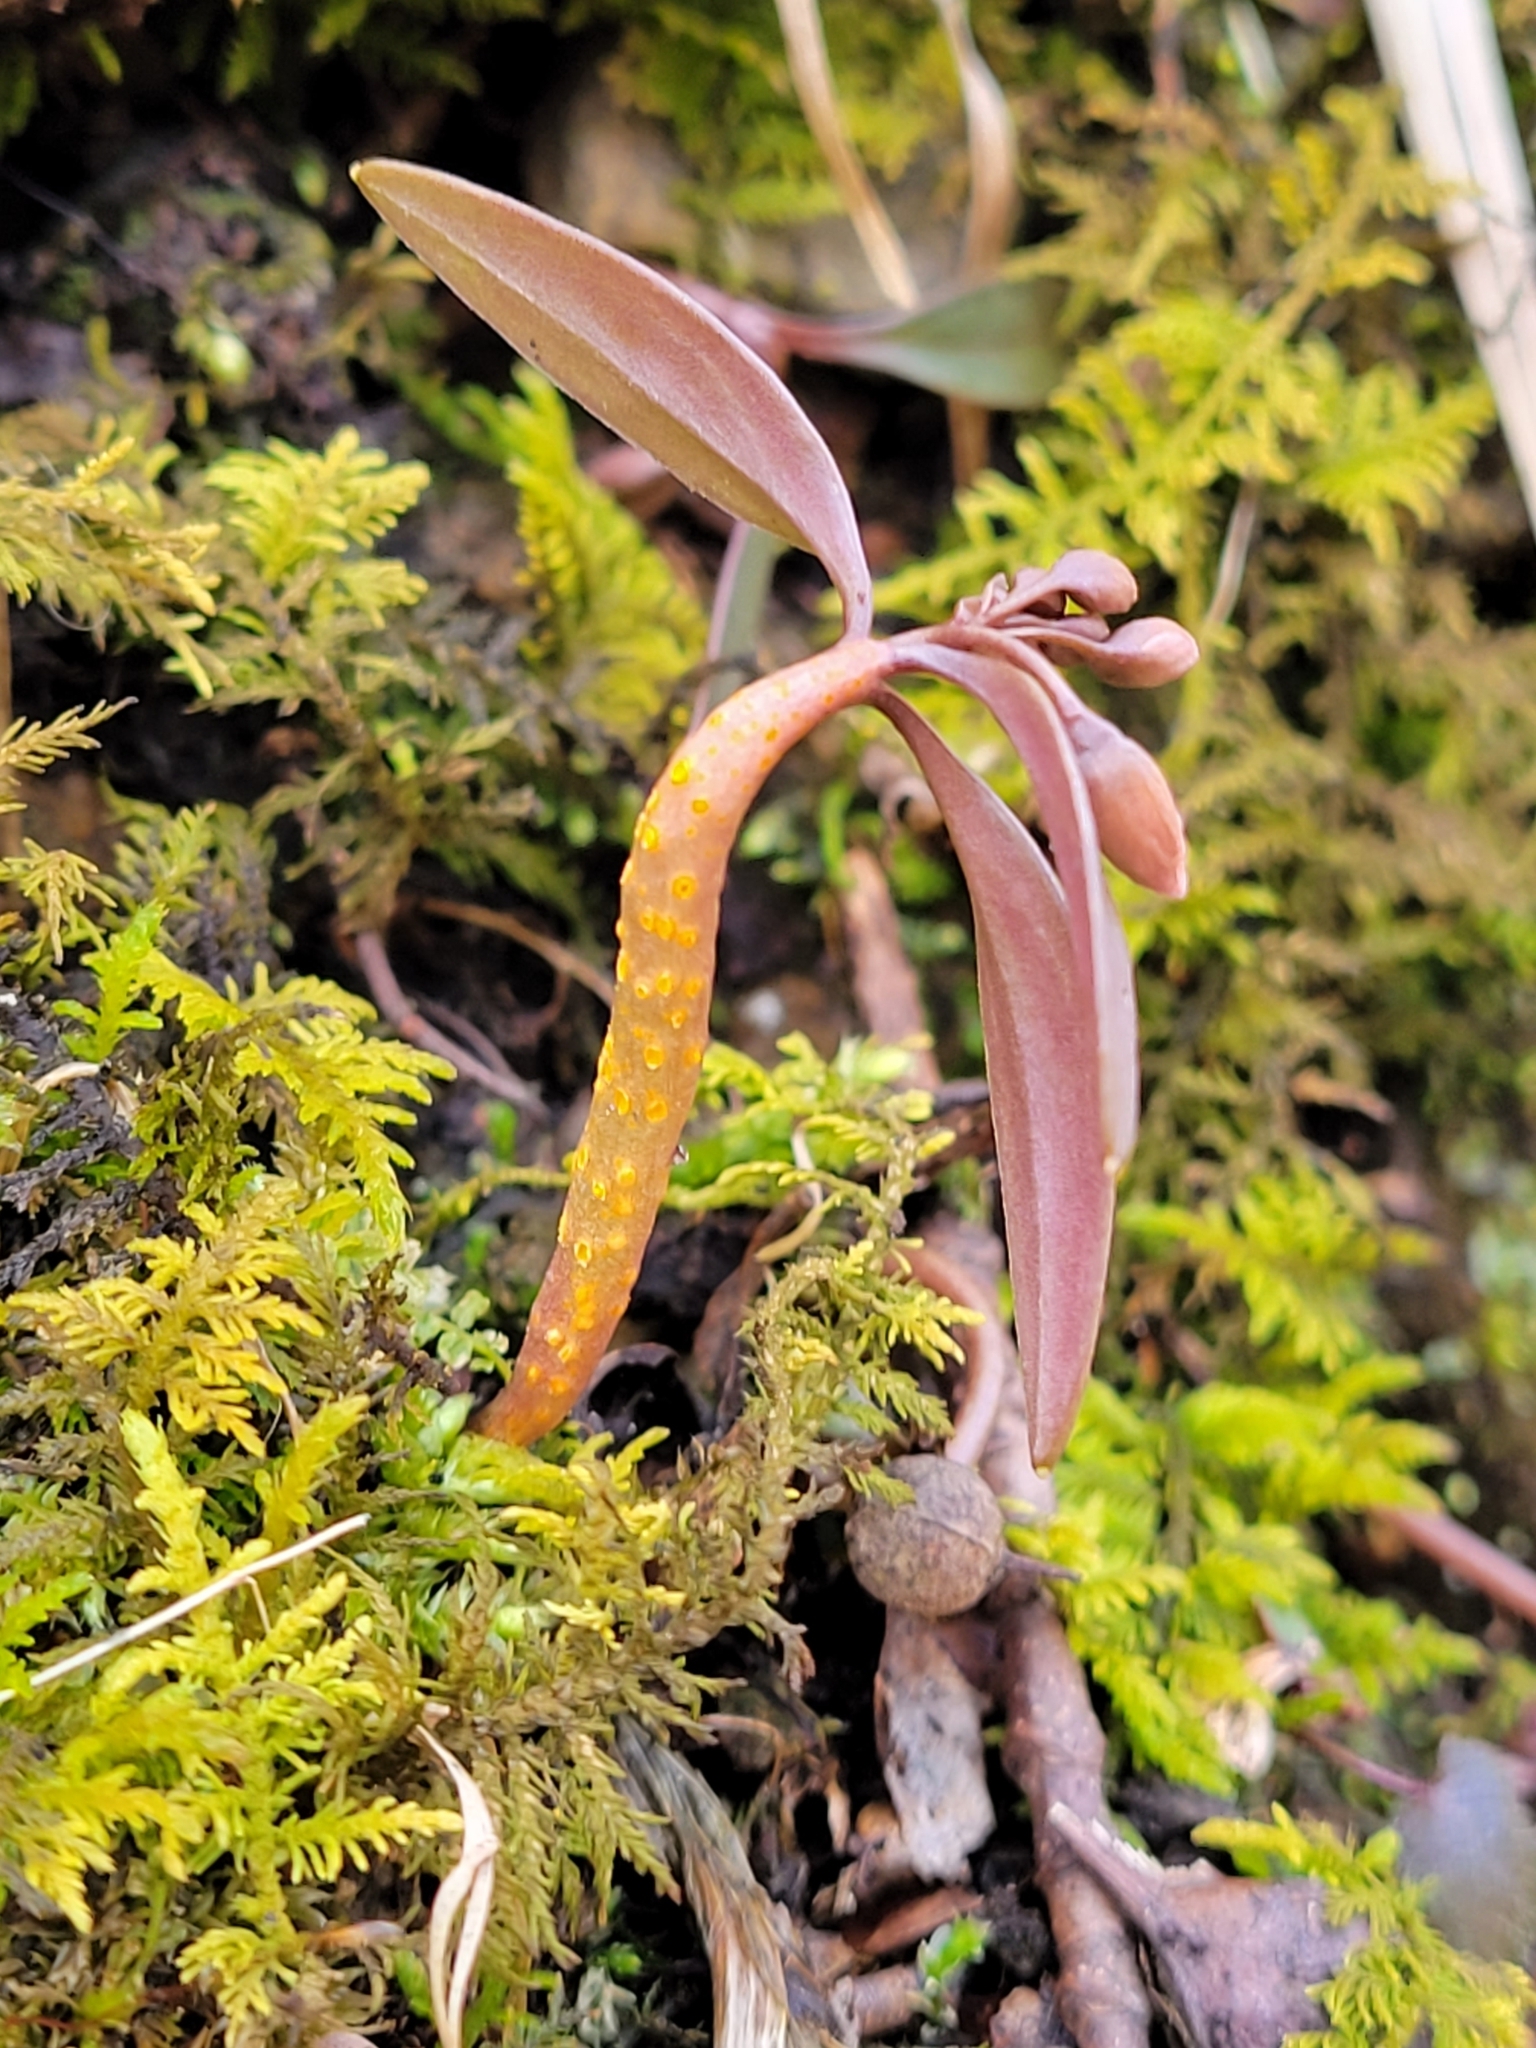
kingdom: Fungi
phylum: Basidiomycota
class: Pucciniomycetes
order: Pucciniales
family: Pucciniaceae
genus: Puccinia
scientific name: Puccinia mariae-wilsoniae
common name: Spring beauty rust
